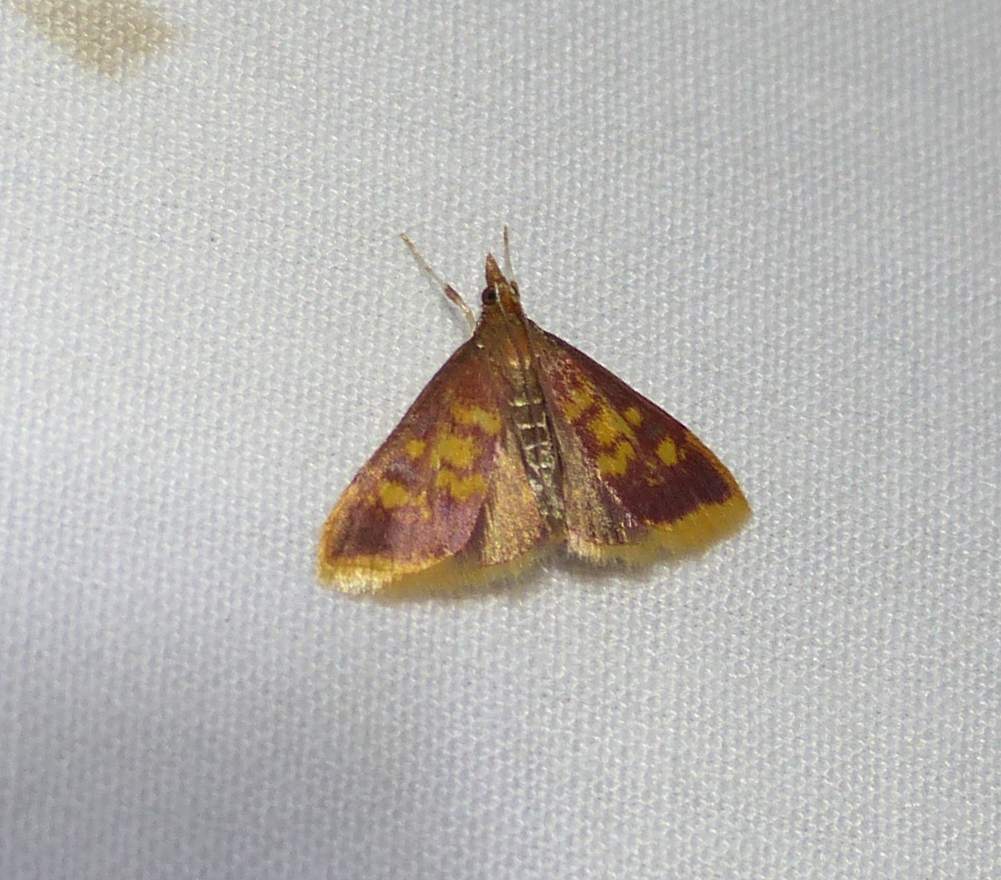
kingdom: Animalia
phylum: Arthropoda
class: Insecta
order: Lepidoptera
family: Crambidae
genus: Pyrausta
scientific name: Pyrausta acrionalis
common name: Mint-loving pyrausta moth
